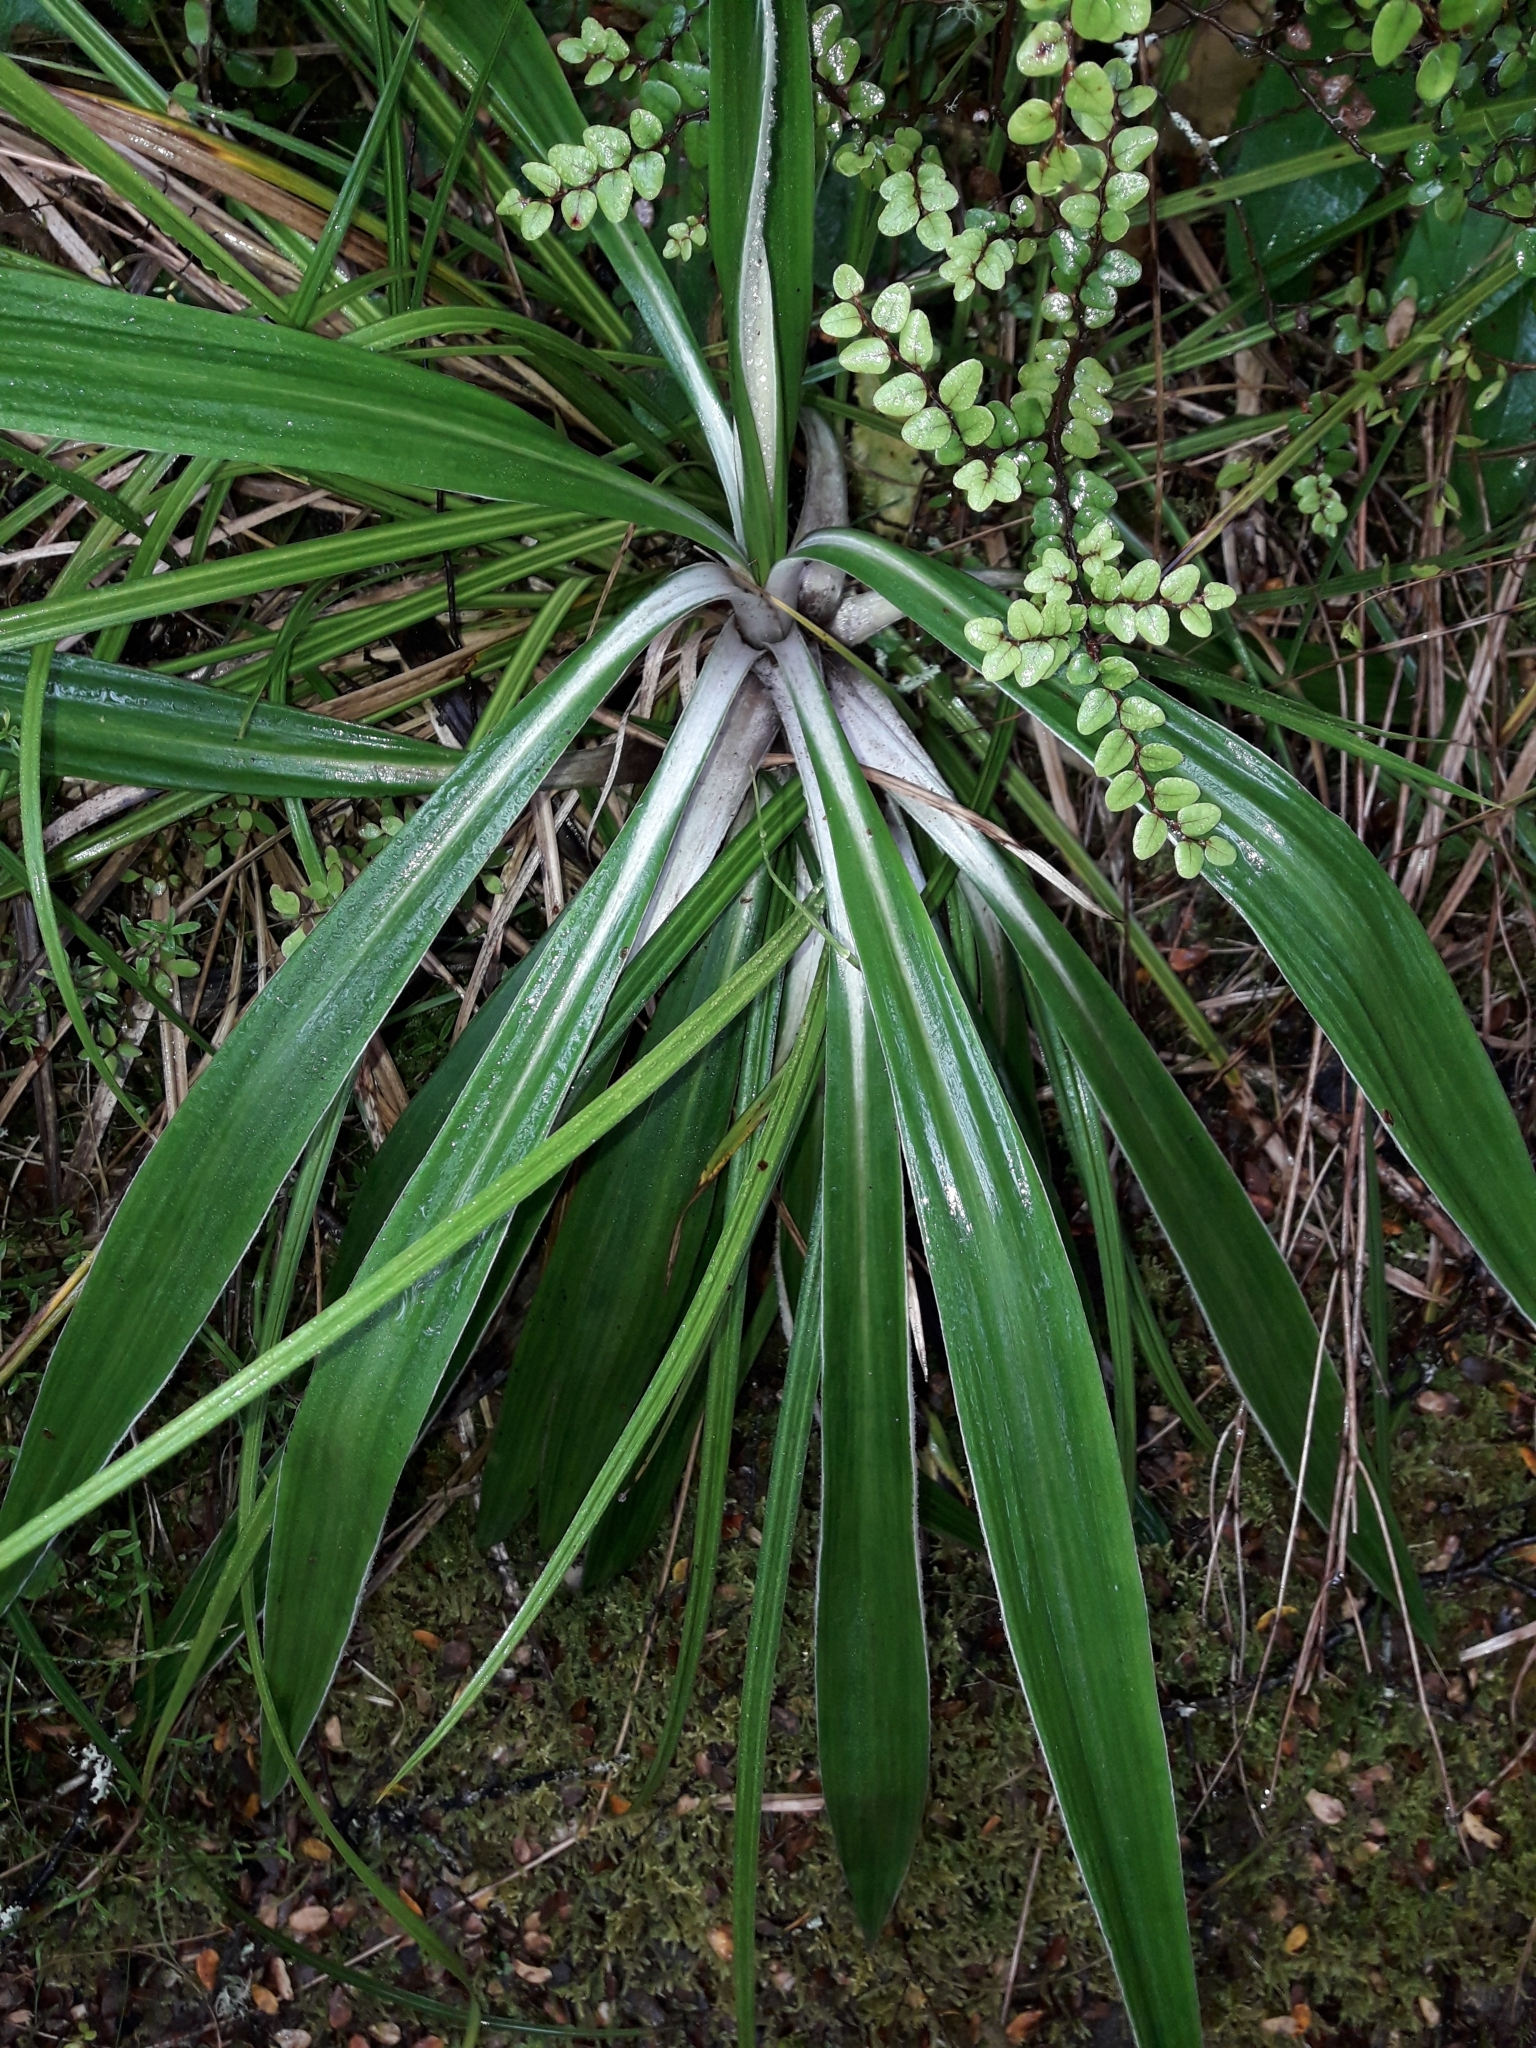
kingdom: Plantae
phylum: Tracheophyta
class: Magnoliopsida
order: Asterales
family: Asteraceae
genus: Celmisia
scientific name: Celmisia spectabilis
